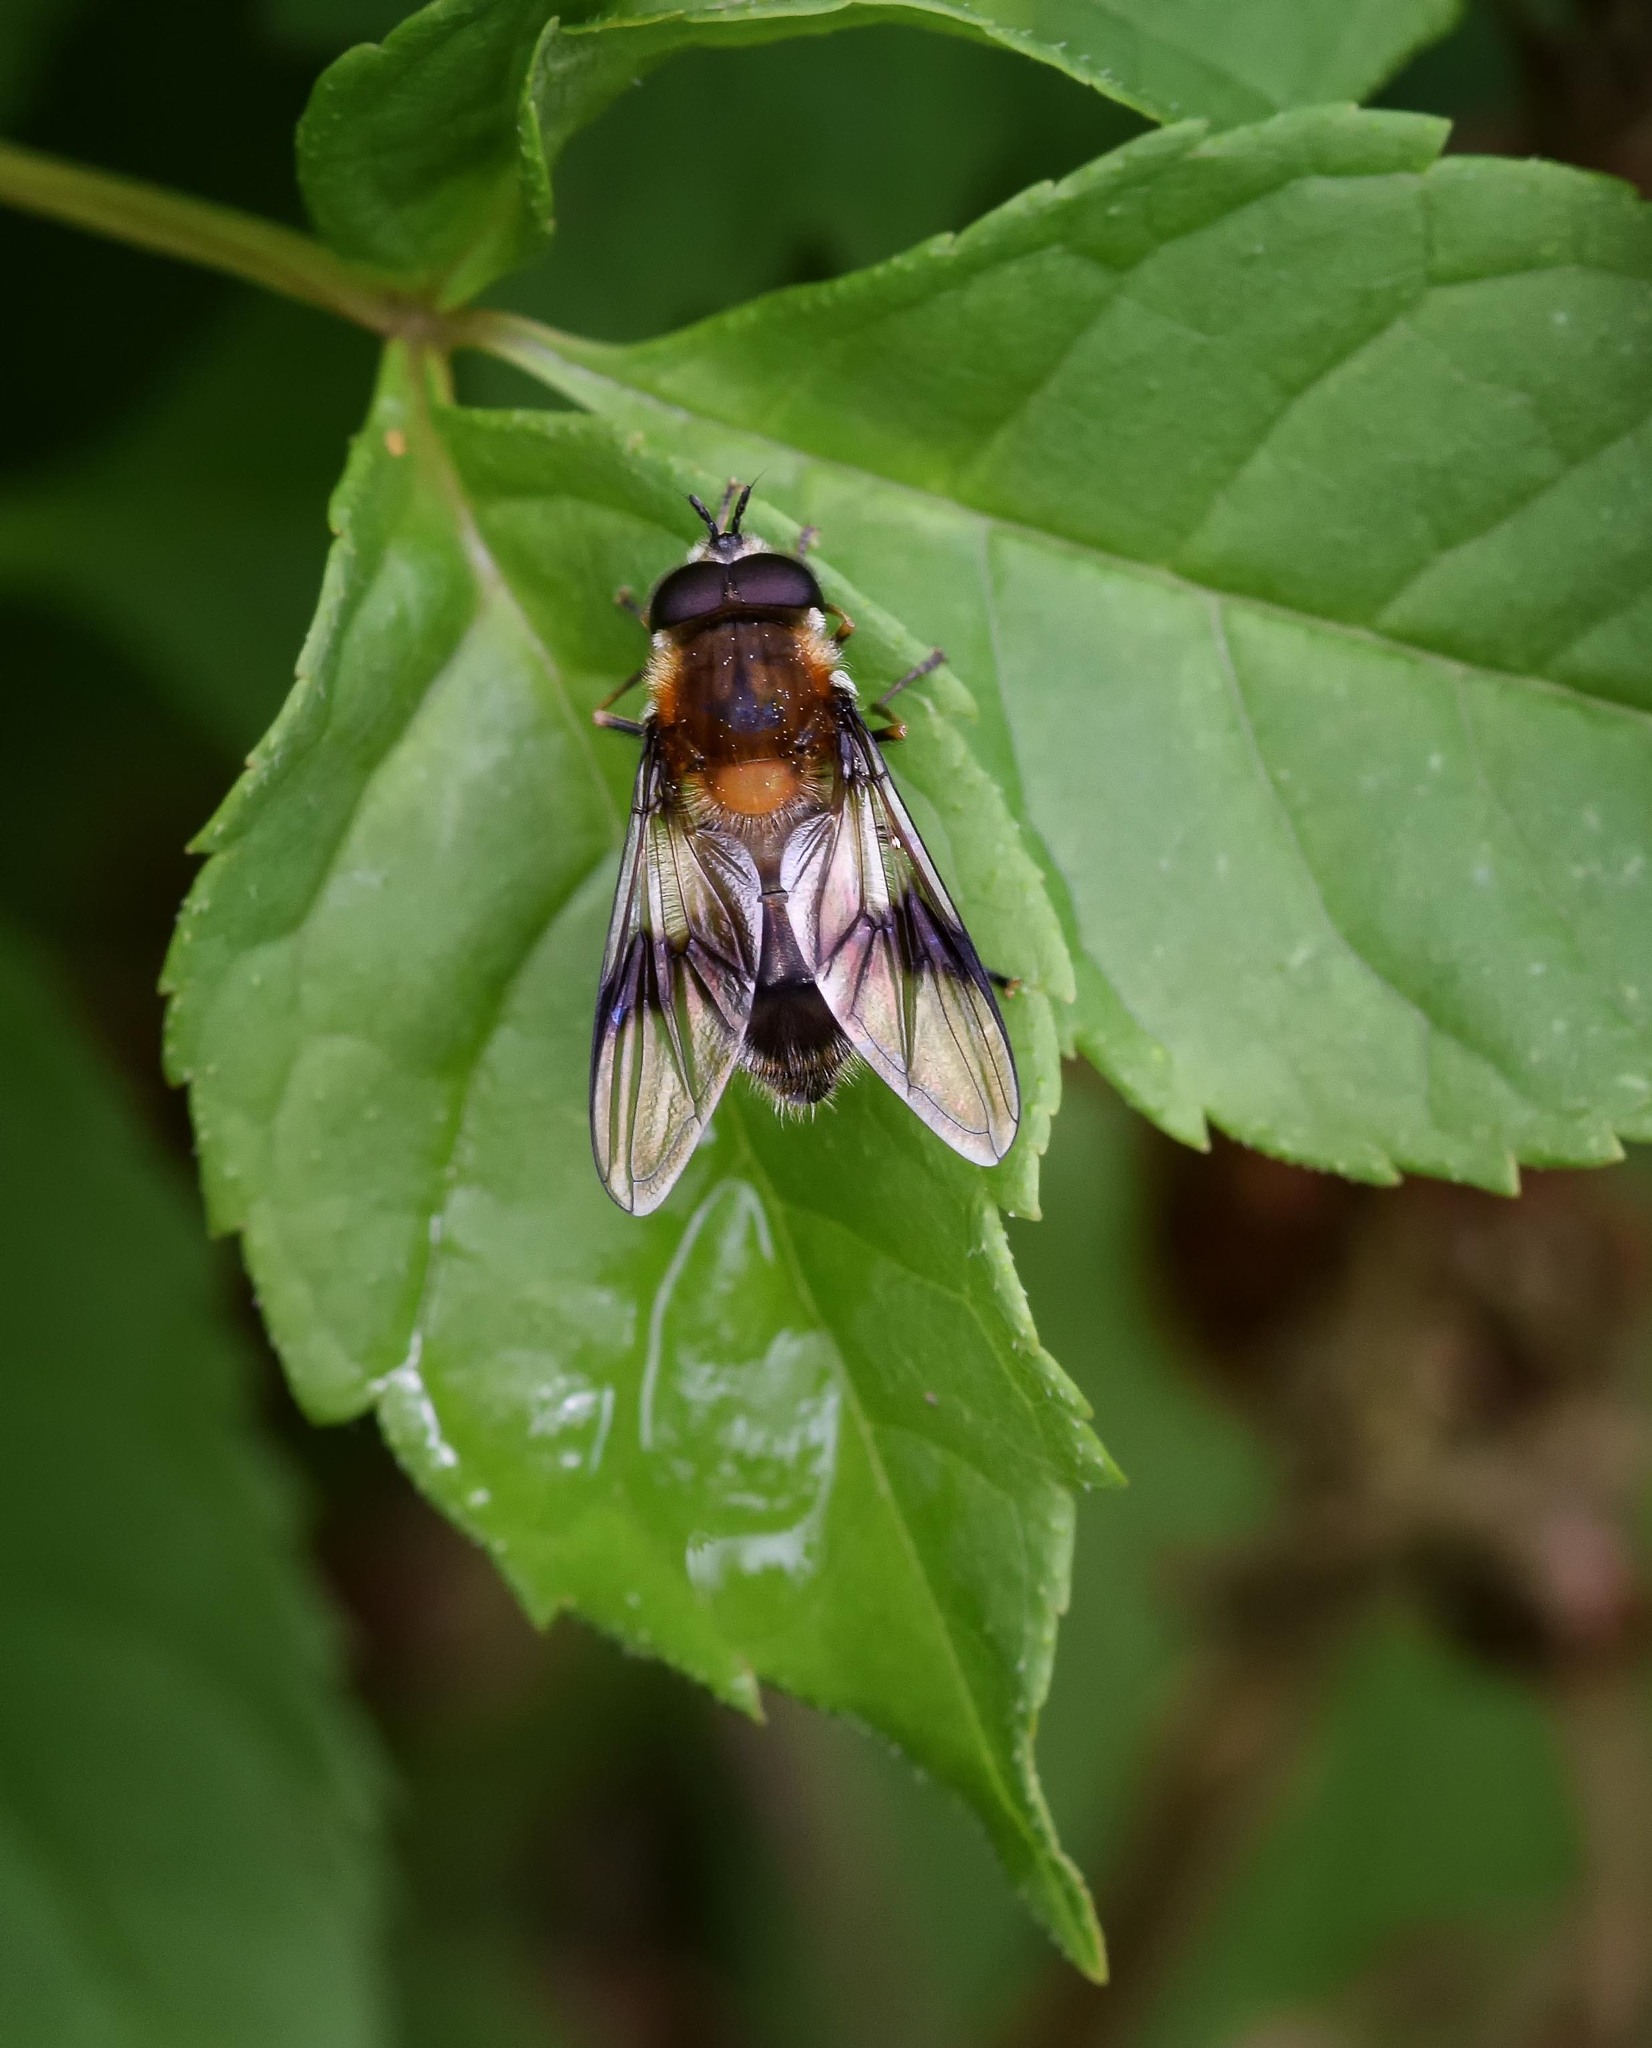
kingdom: Animalia
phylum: Arthropoda
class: Insecta
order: Diptera
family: Syrphidae
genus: Leucozona
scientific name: Leucozona lucorum
